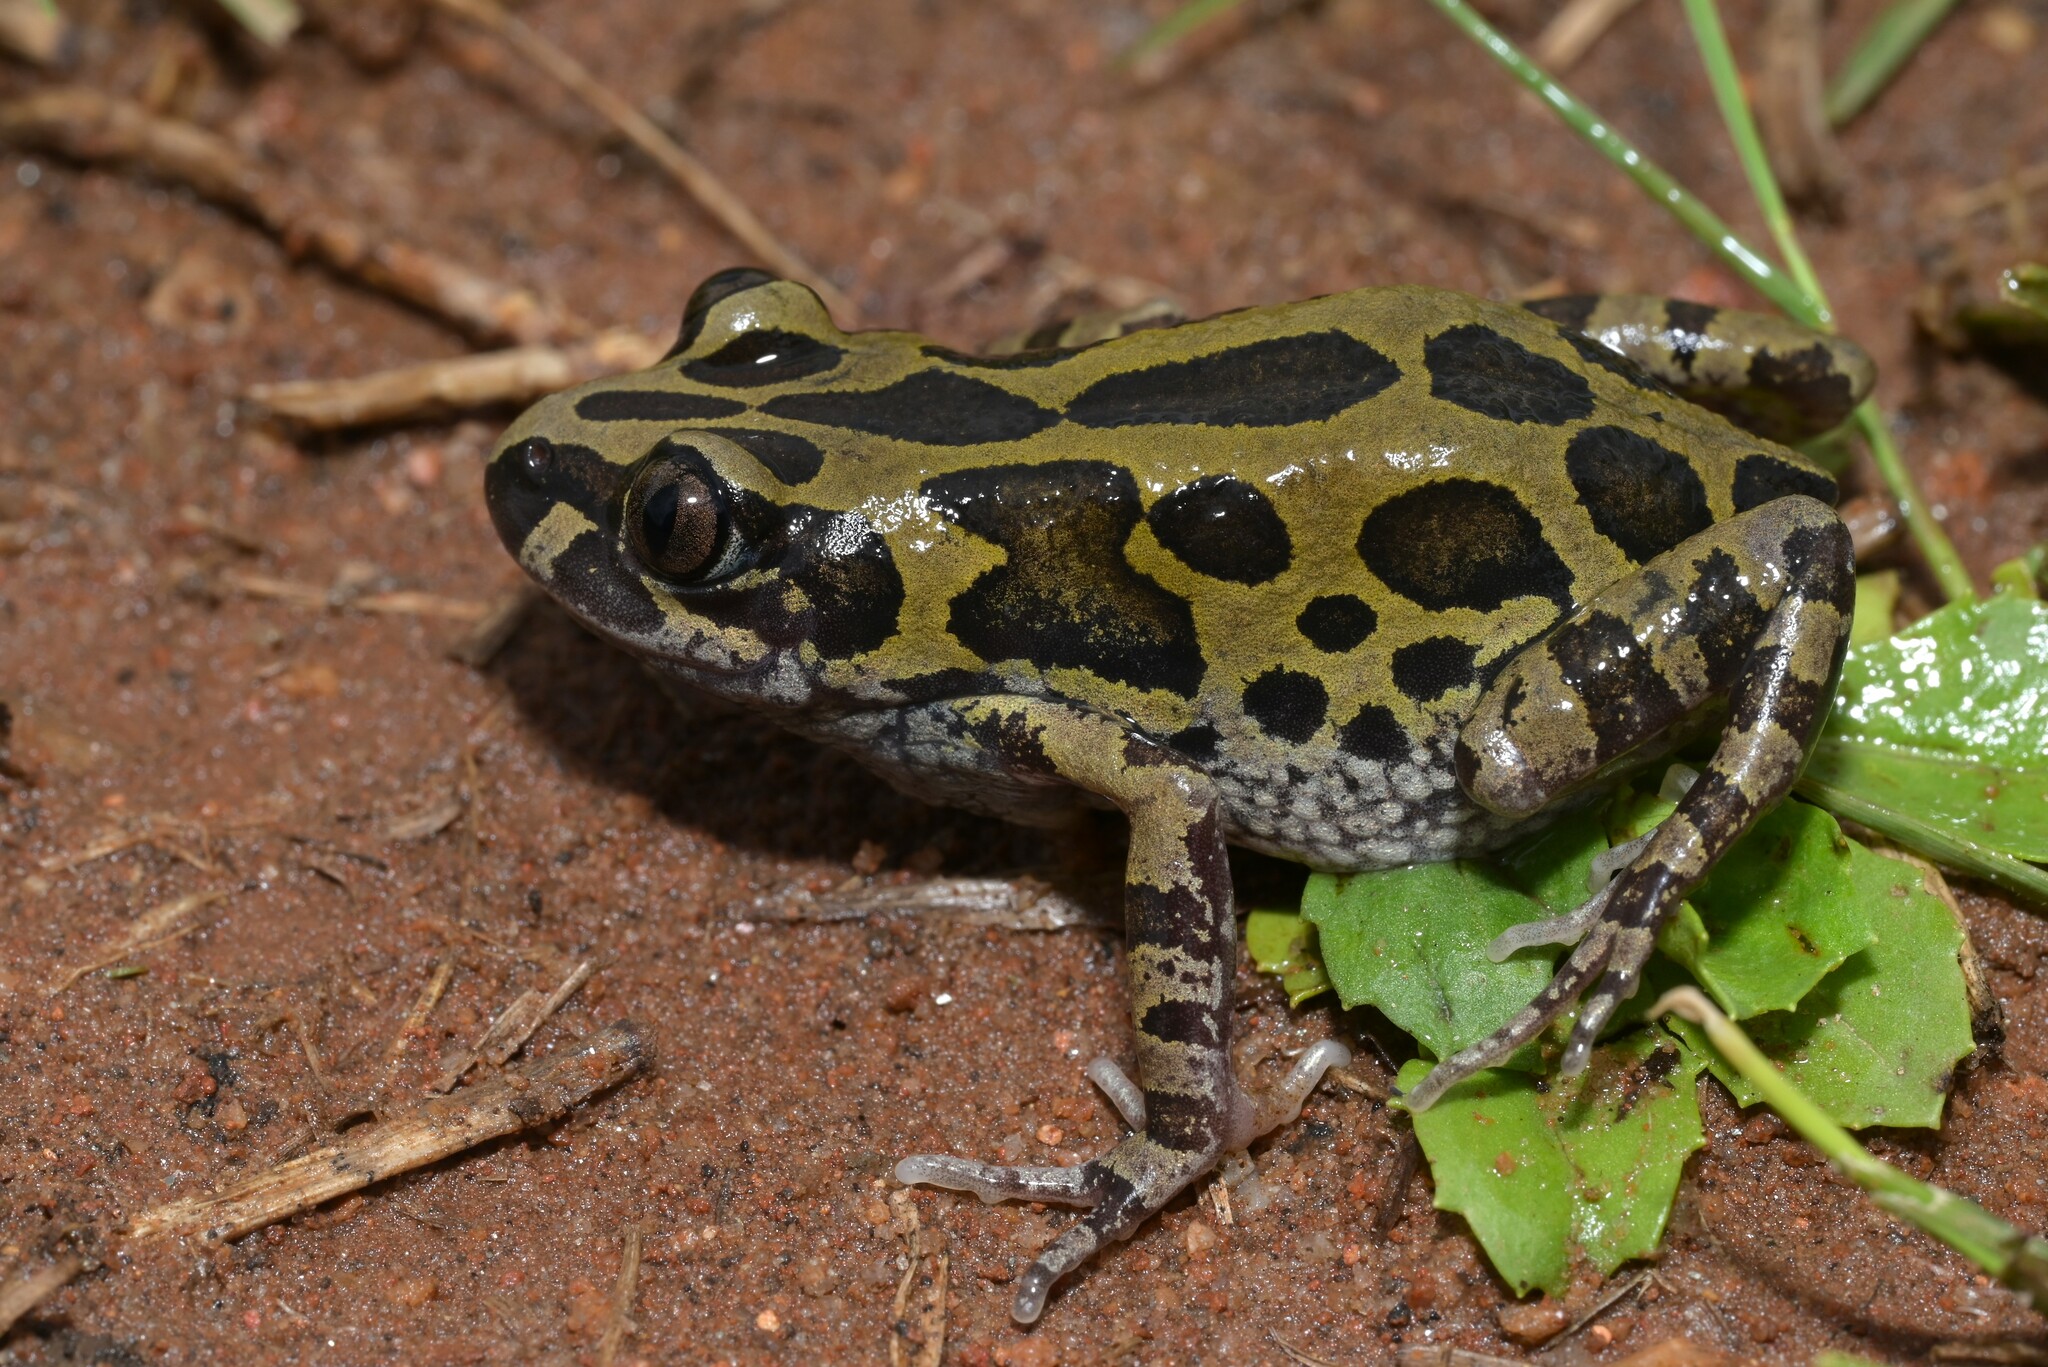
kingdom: Animalia
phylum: Chordata
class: Amphibia
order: Anura
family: Hyperoliidae
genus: Kassina
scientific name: Kassina senegalensis
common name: Senegal land frog
